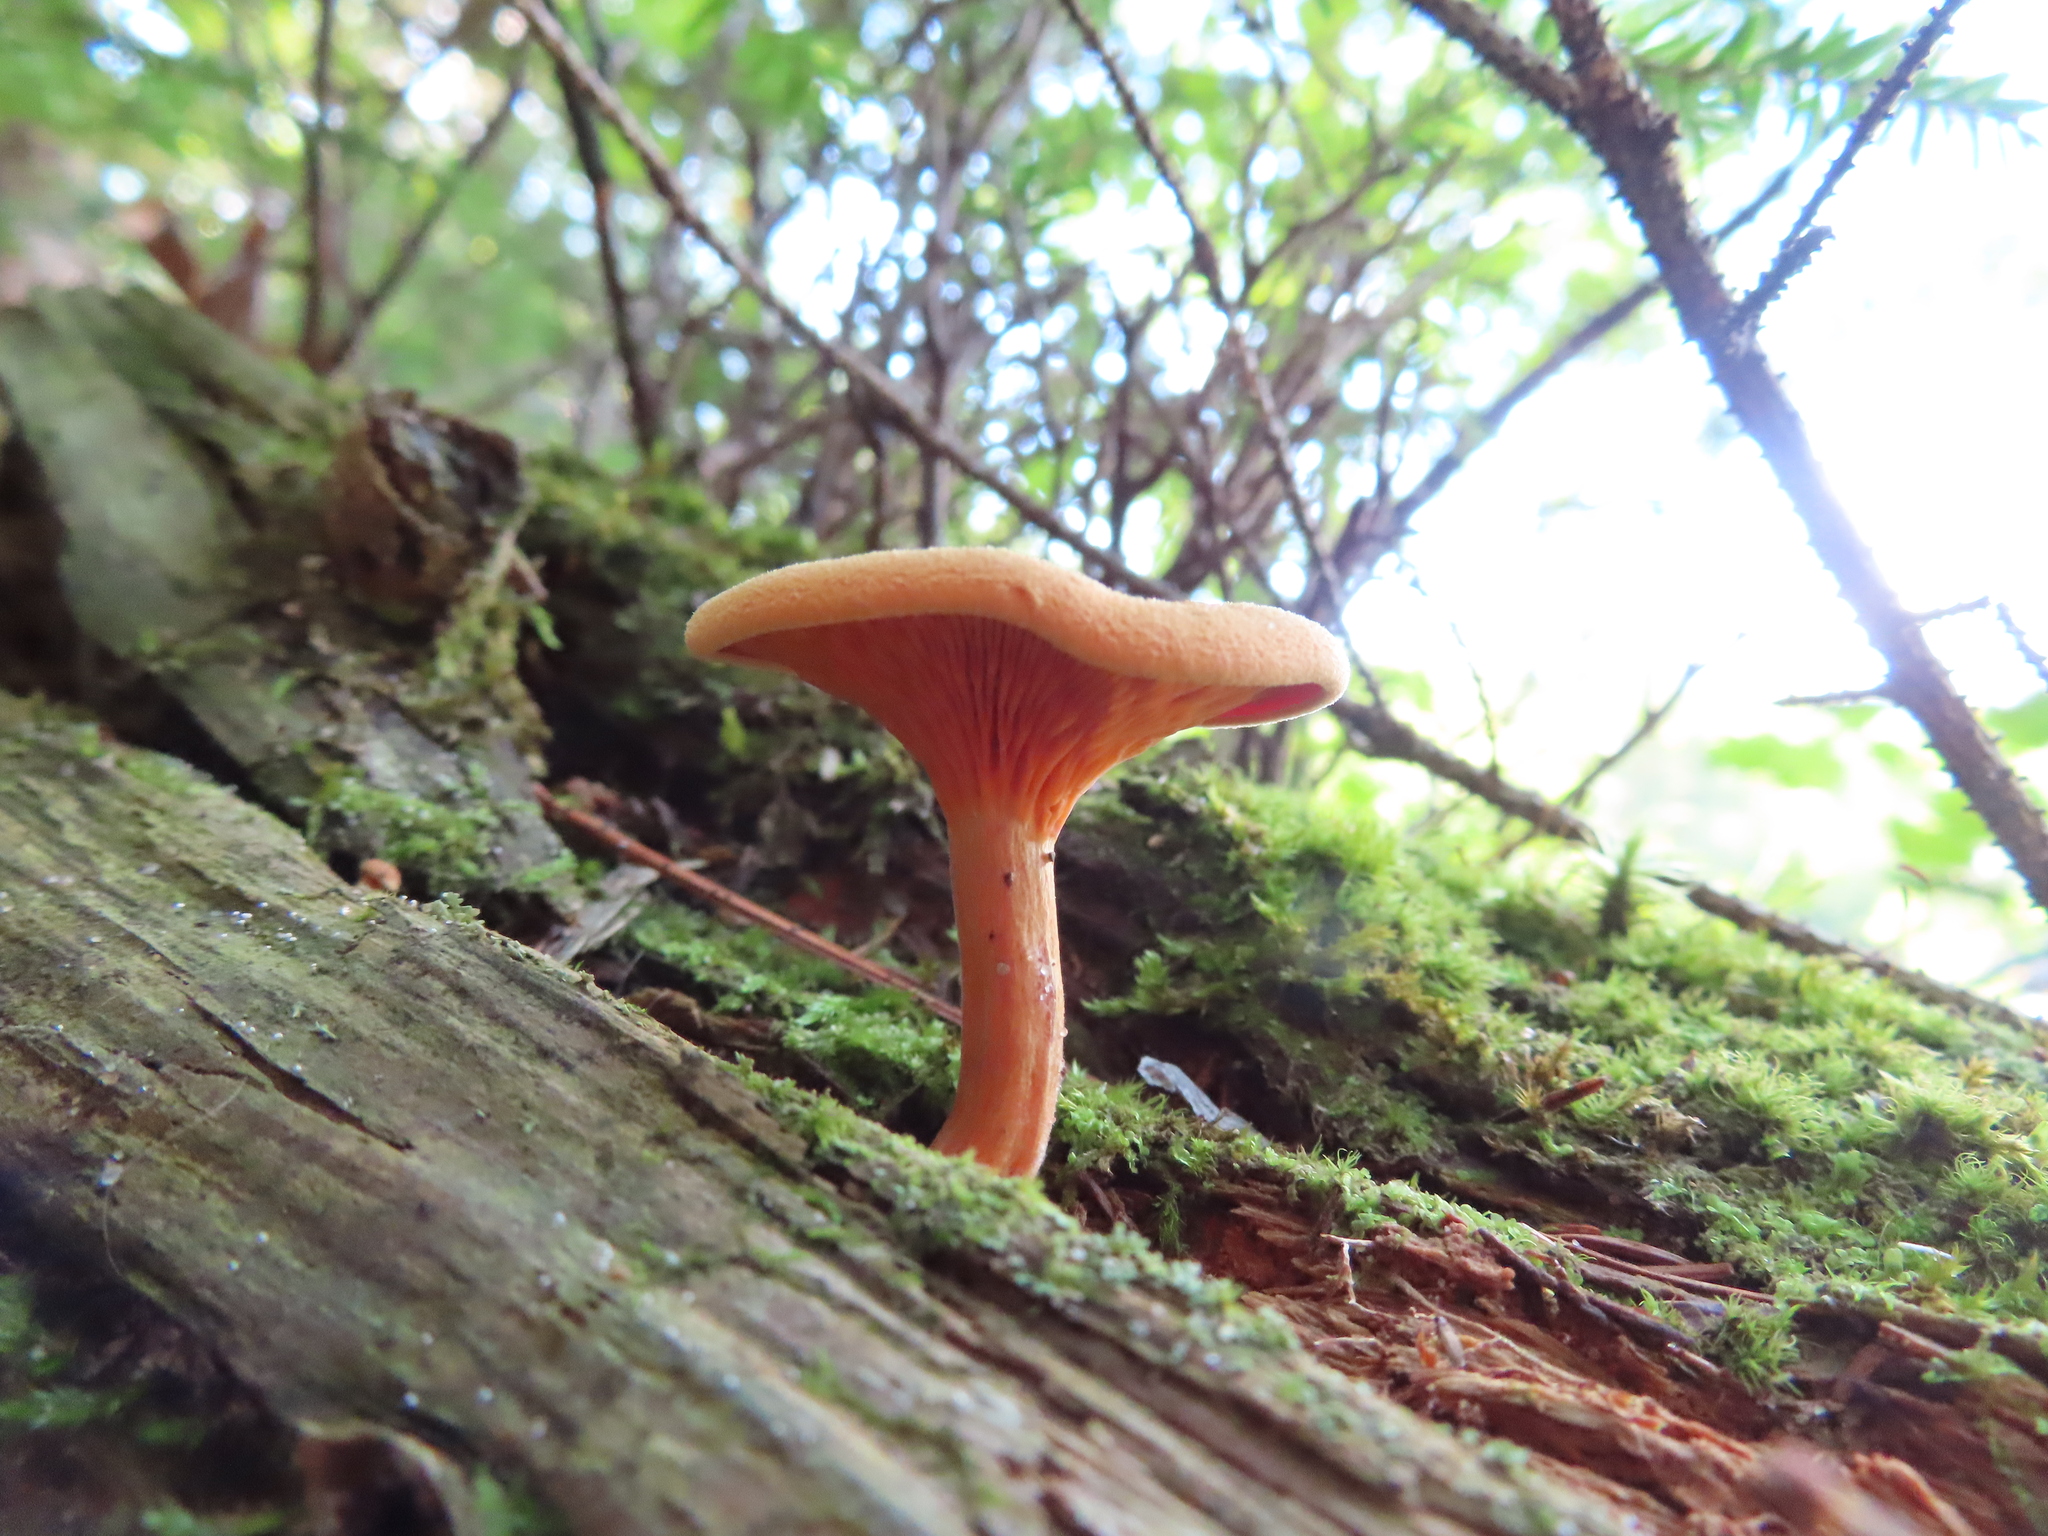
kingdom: Fungi
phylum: Basidiomycota
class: Agaricomycetes
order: Boletales
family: Hygrophoropsidaceae
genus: Hygrophoropsis
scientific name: Hygrophoropsis aurantiaca
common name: False chanterelle
